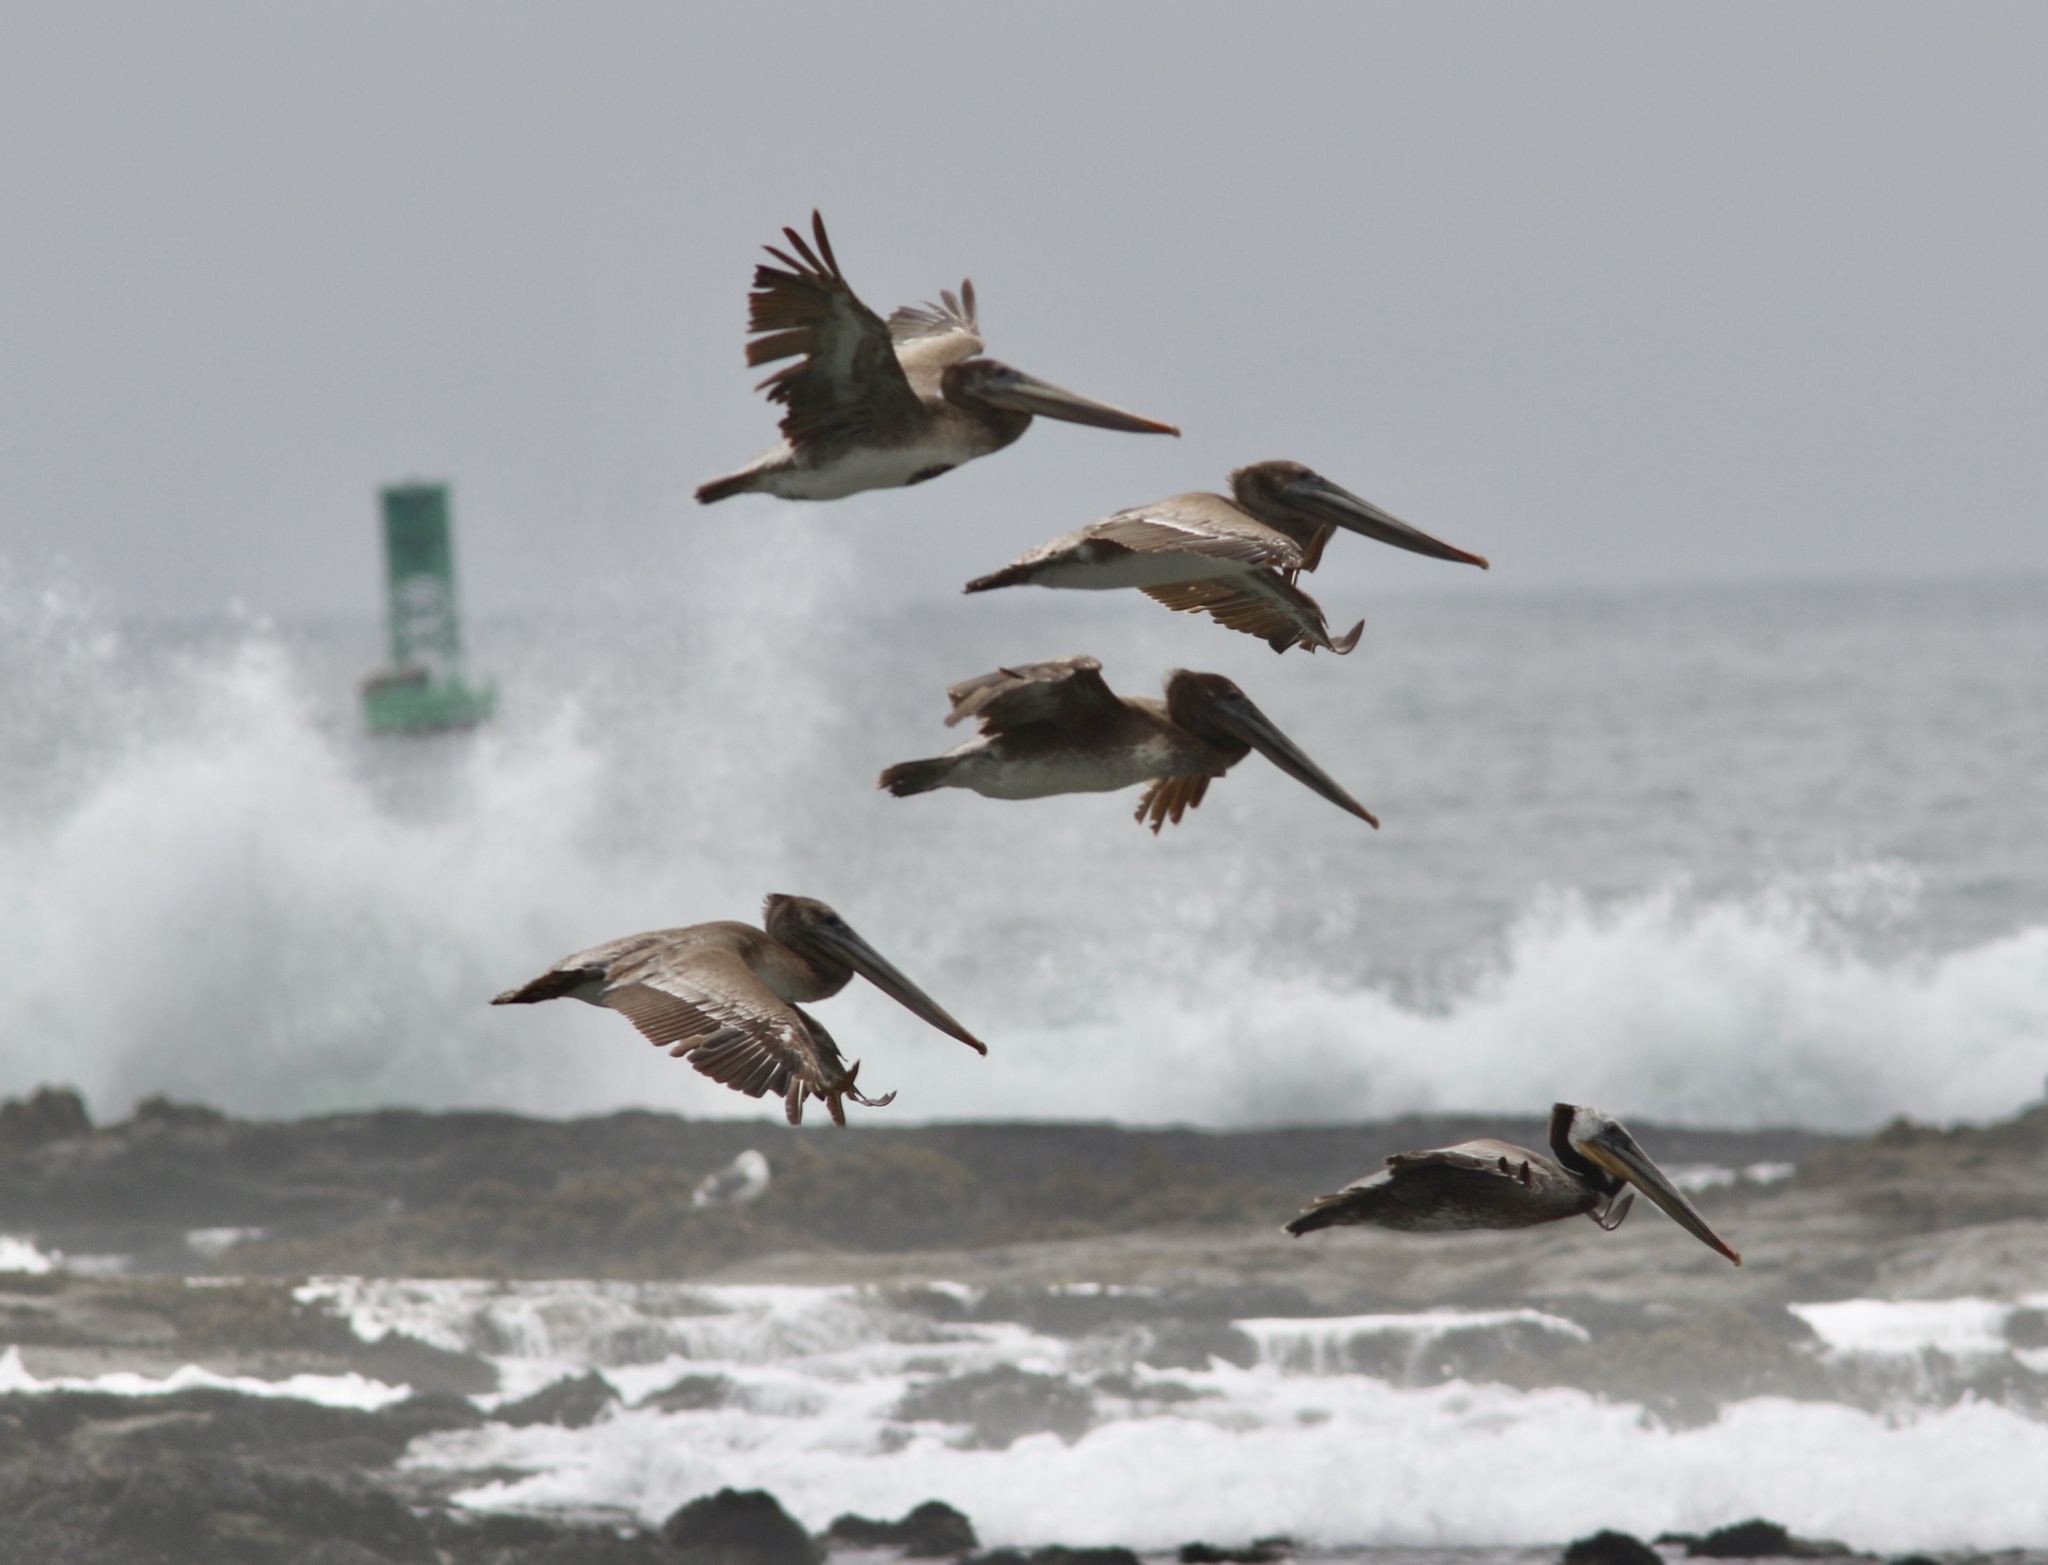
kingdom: Animalia
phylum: Chordata
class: Aves
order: Pelecaniformes
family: Pelecanidae
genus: Pelecanus
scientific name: Pelecanus occidentalis
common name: Brown pelican
